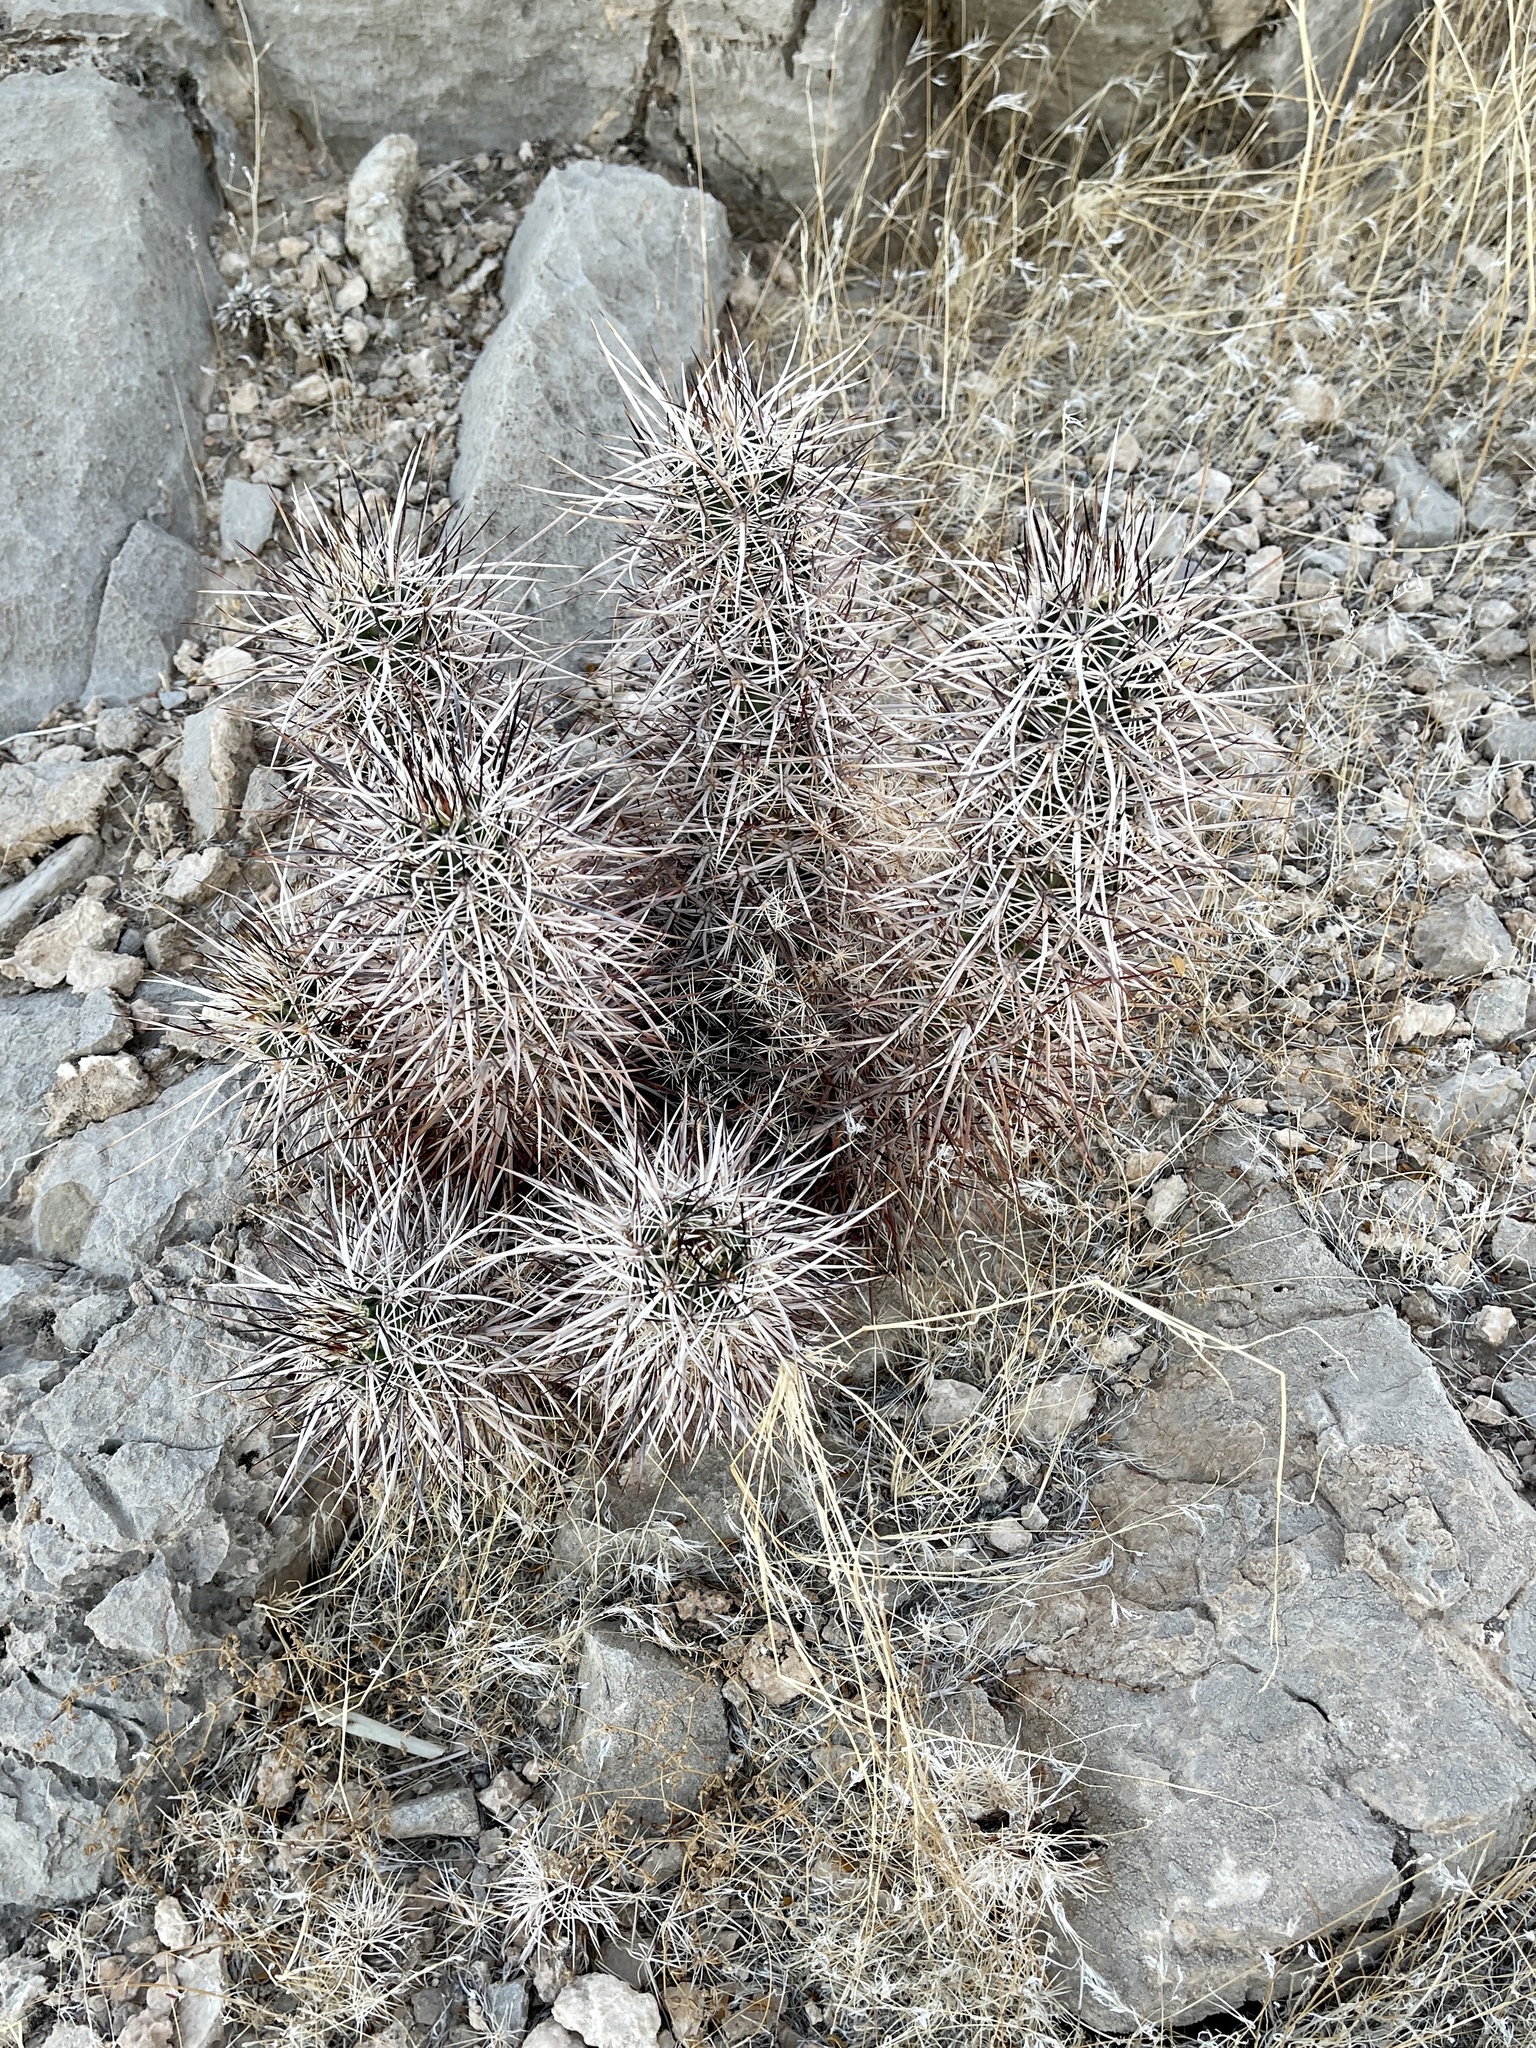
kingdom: Plantae
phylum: Tracheophyta
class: Magnoliopsida
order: Caryophyllales
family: Cactaceae
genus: Echinocereus
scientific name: Echinocereus engelmannii
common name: Engelmann's hedgehog cactus
